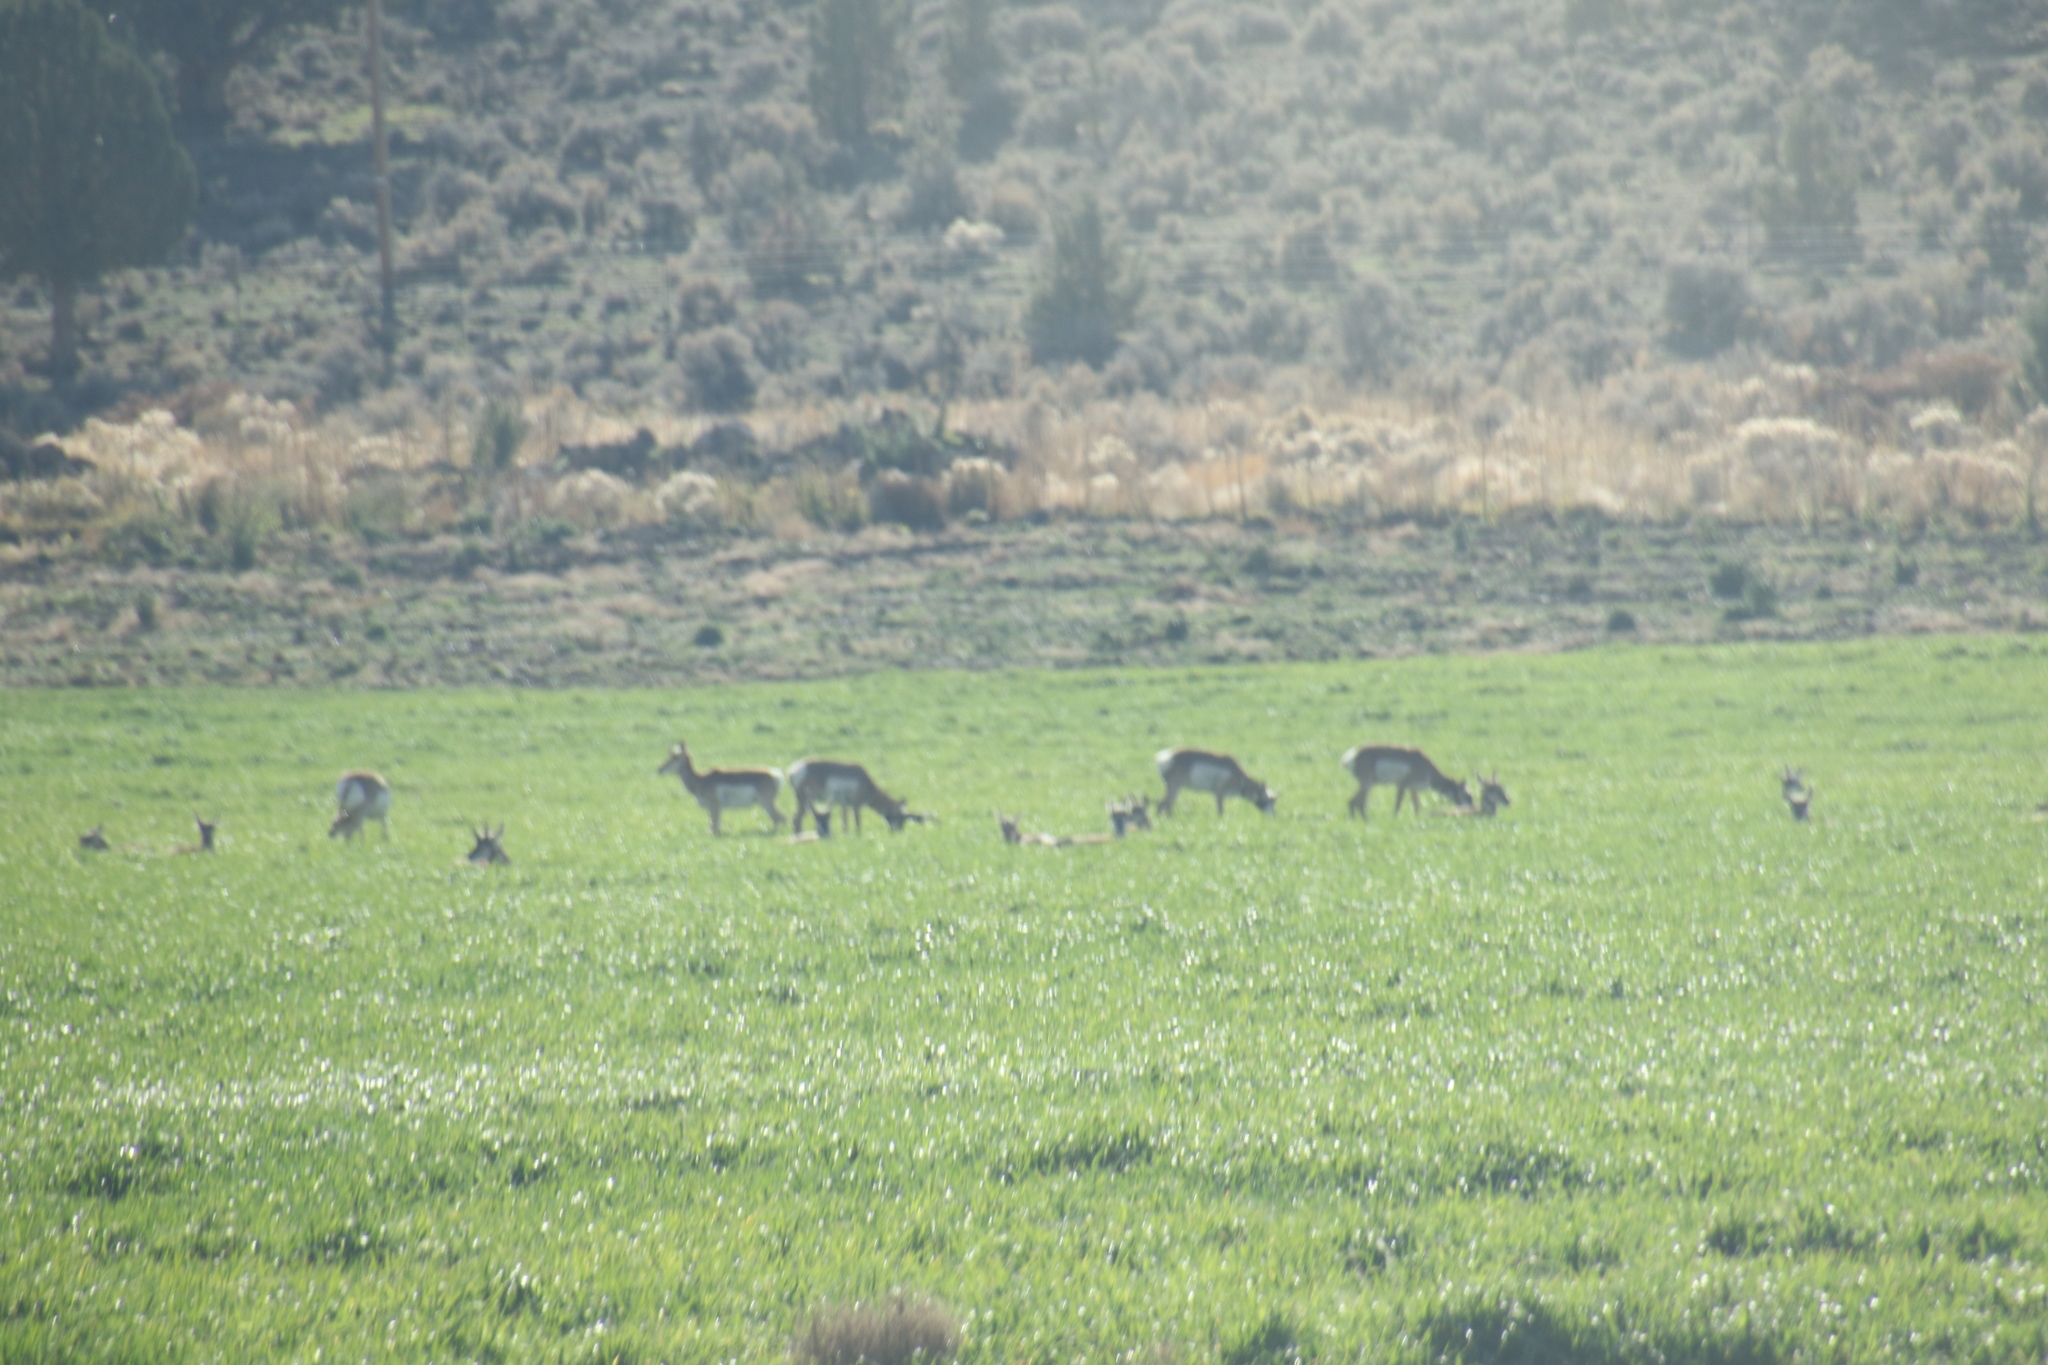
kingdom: Animalia
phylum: Chordata
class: Mammalia
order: Artiodactyla
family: Antilocapridae
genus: Antilocapra
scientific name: Antilocapra americana
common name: Pronghorn
